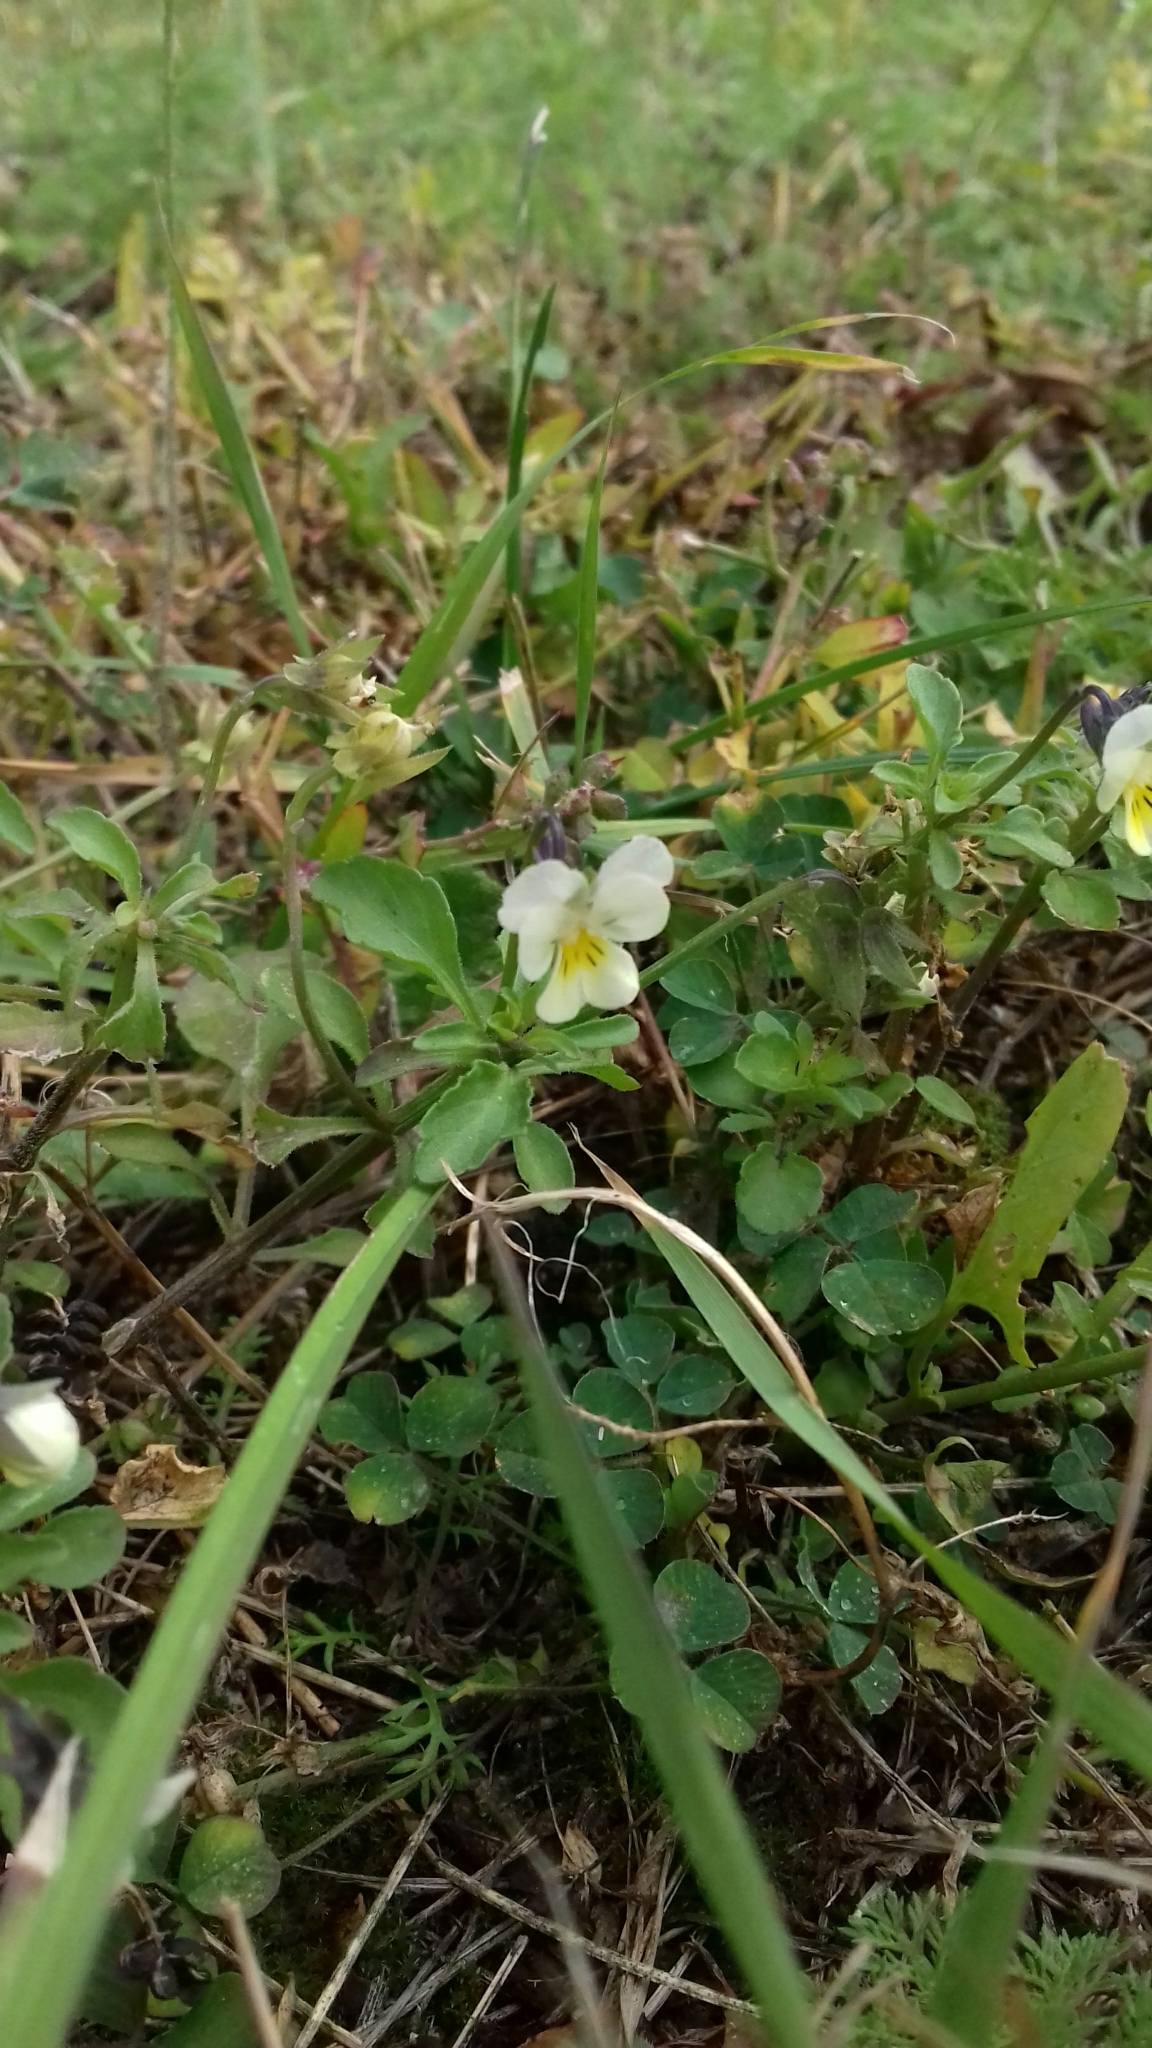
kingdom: Plantae
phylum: Tracheophyta
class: Magnoliopsida
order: Malpighiales
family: Violaceae
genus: Viola
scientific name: Viola arvensis
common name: Field pansy
